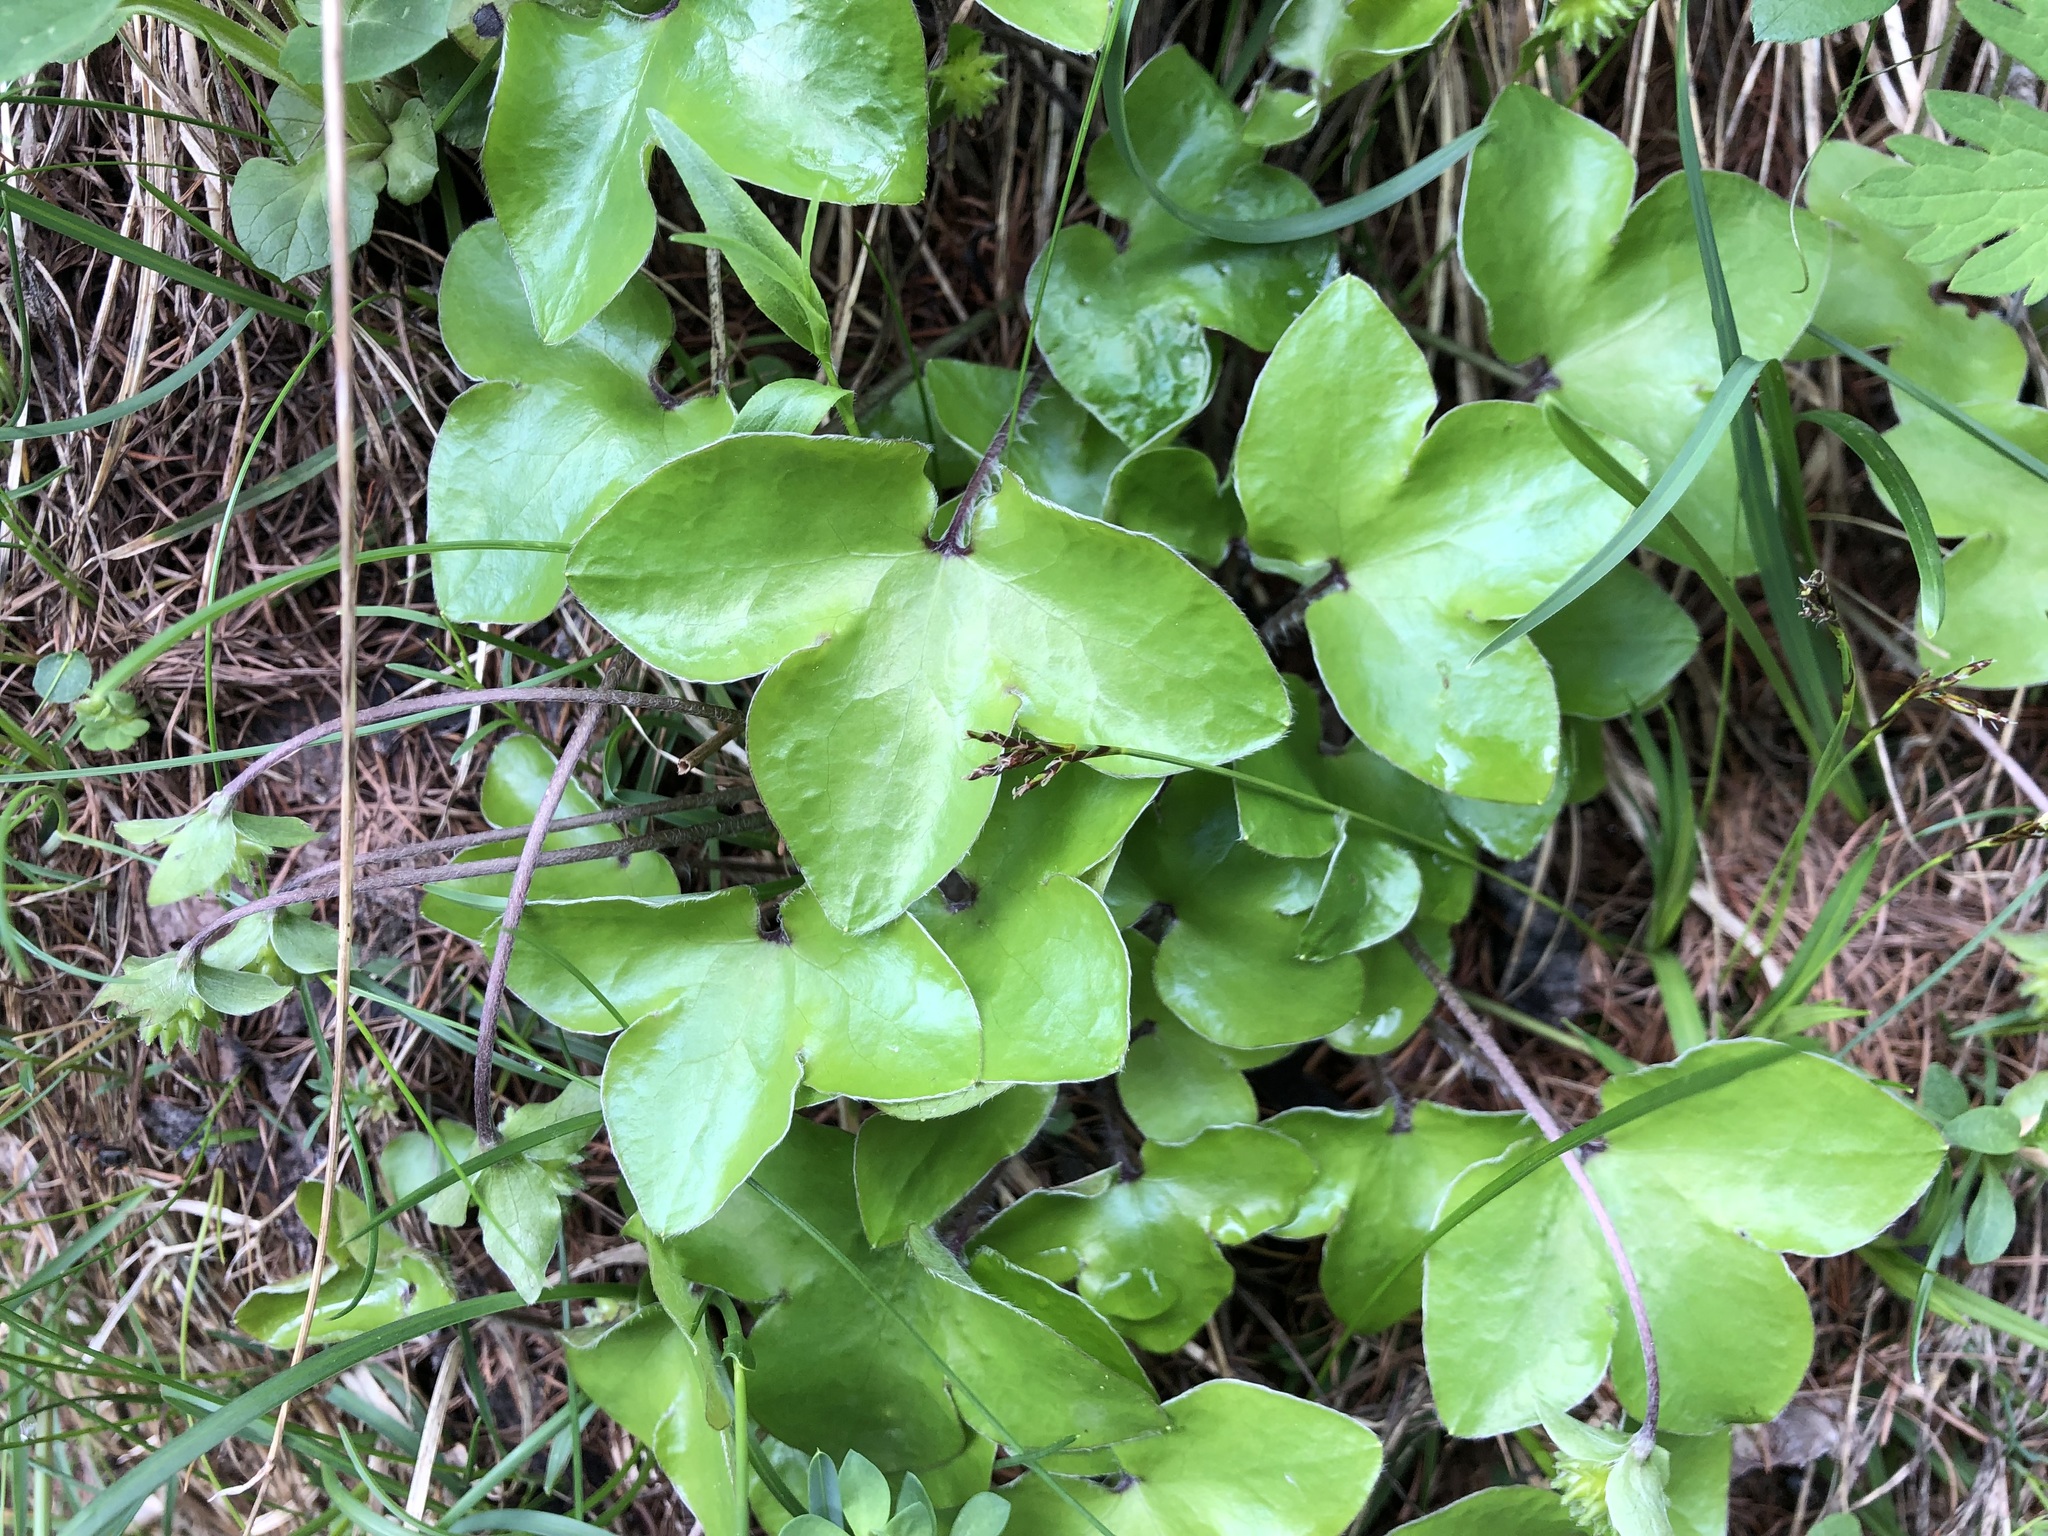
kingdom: Plantae
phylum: Tracheophyta
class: Magnoliopsida
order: Ranunculales
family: Ranunculaceae
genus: Hepatica
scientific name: Hepatica nobilis
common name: Liverleaf
